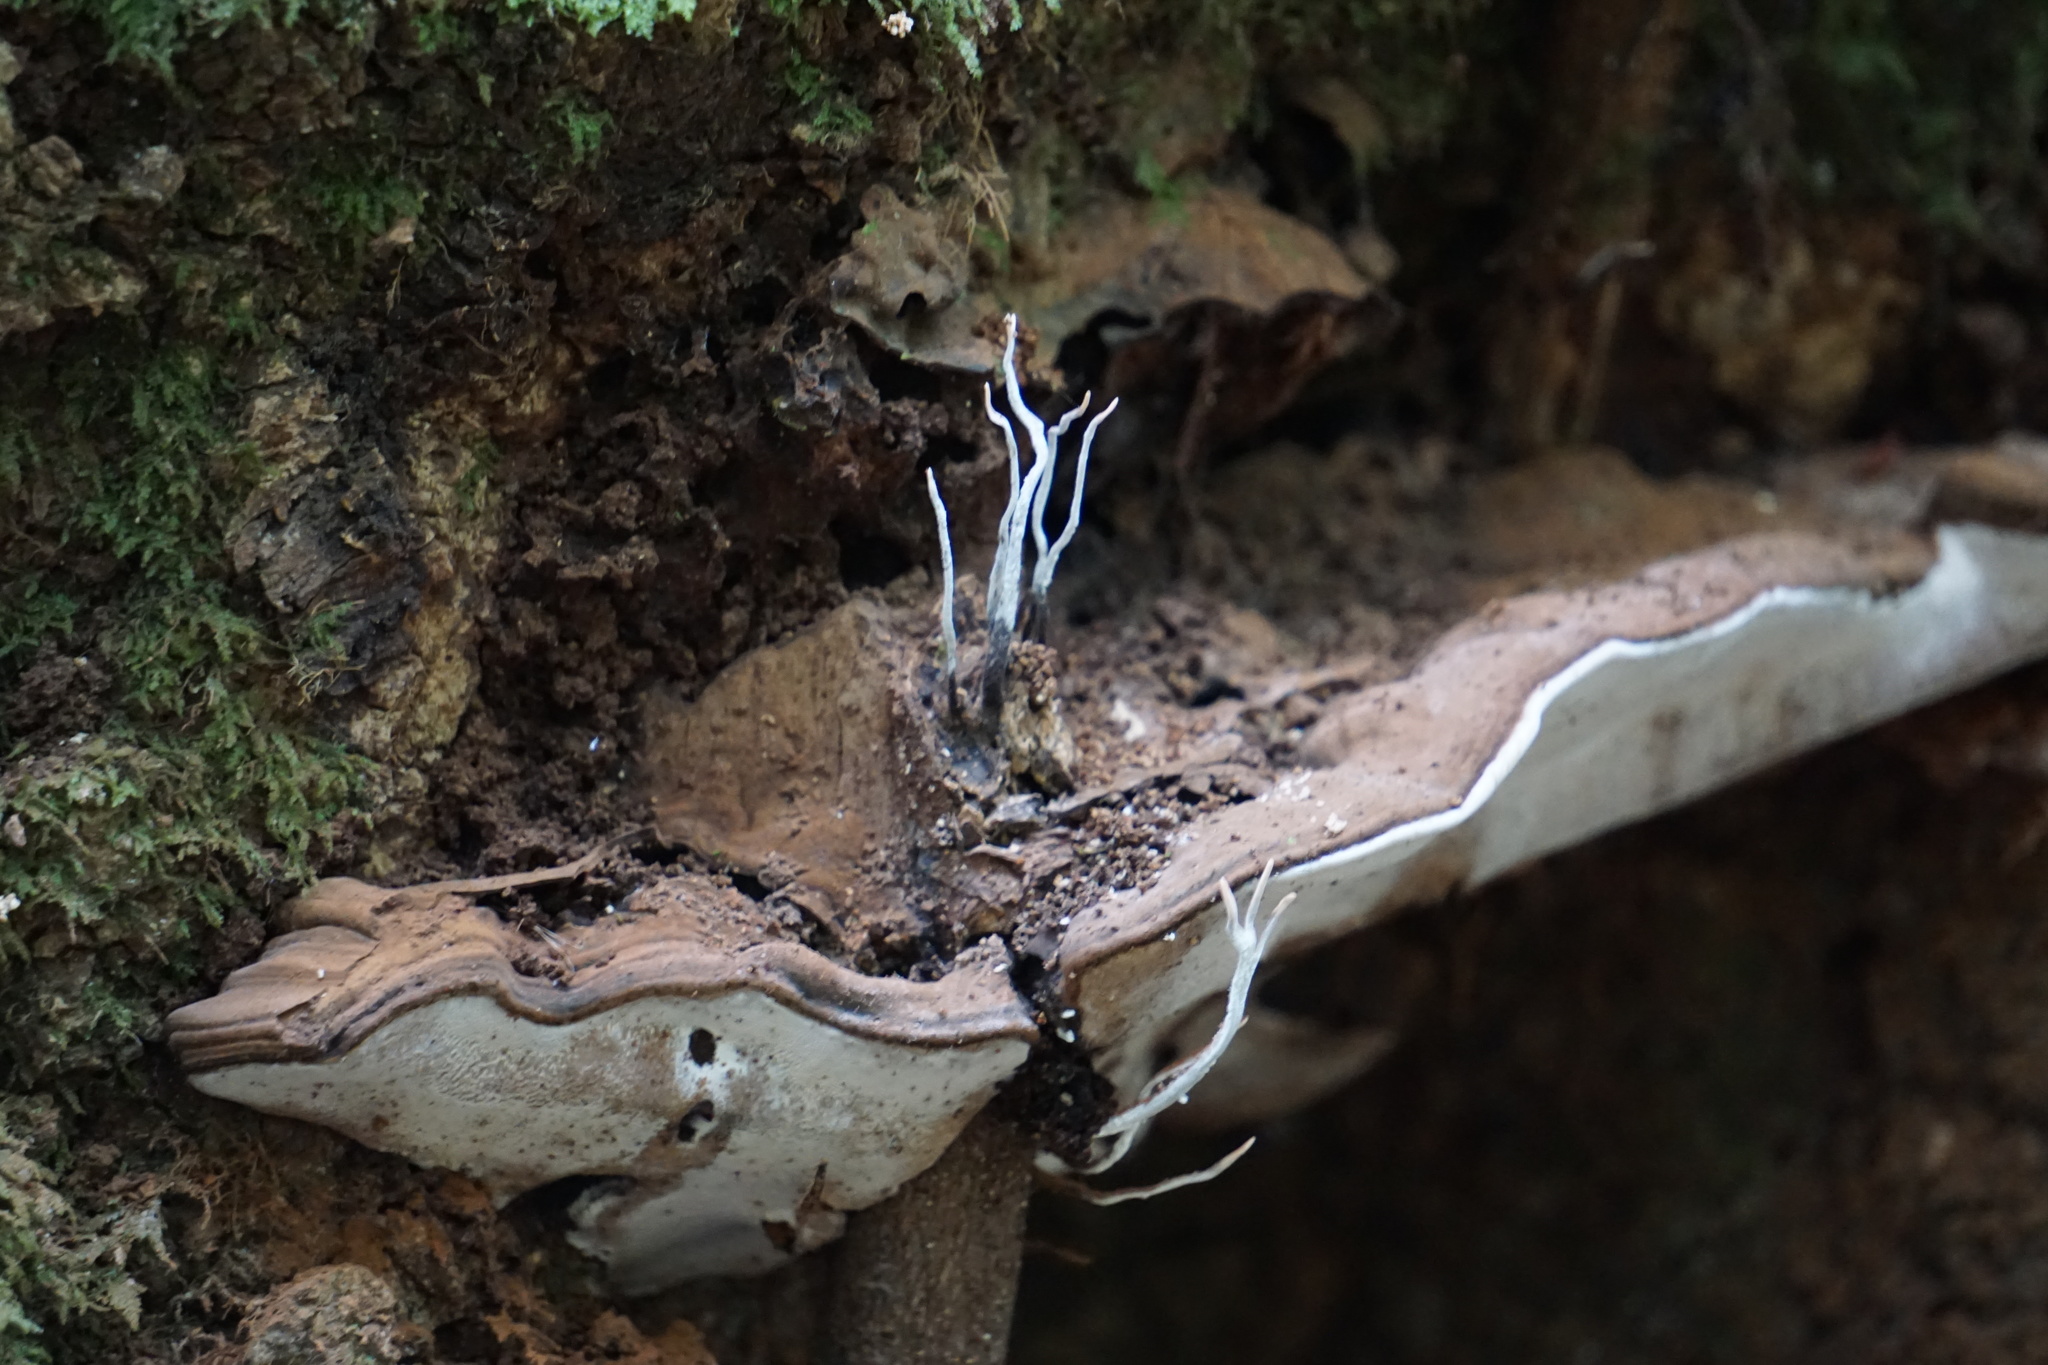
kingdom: Fungi
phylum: Ascomycota
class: Sordariomycetes
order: Xylariales
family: Xylariaceae
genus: Xylaria
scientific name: Xylaria hypoxylon
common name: Candle-snuff fungus
